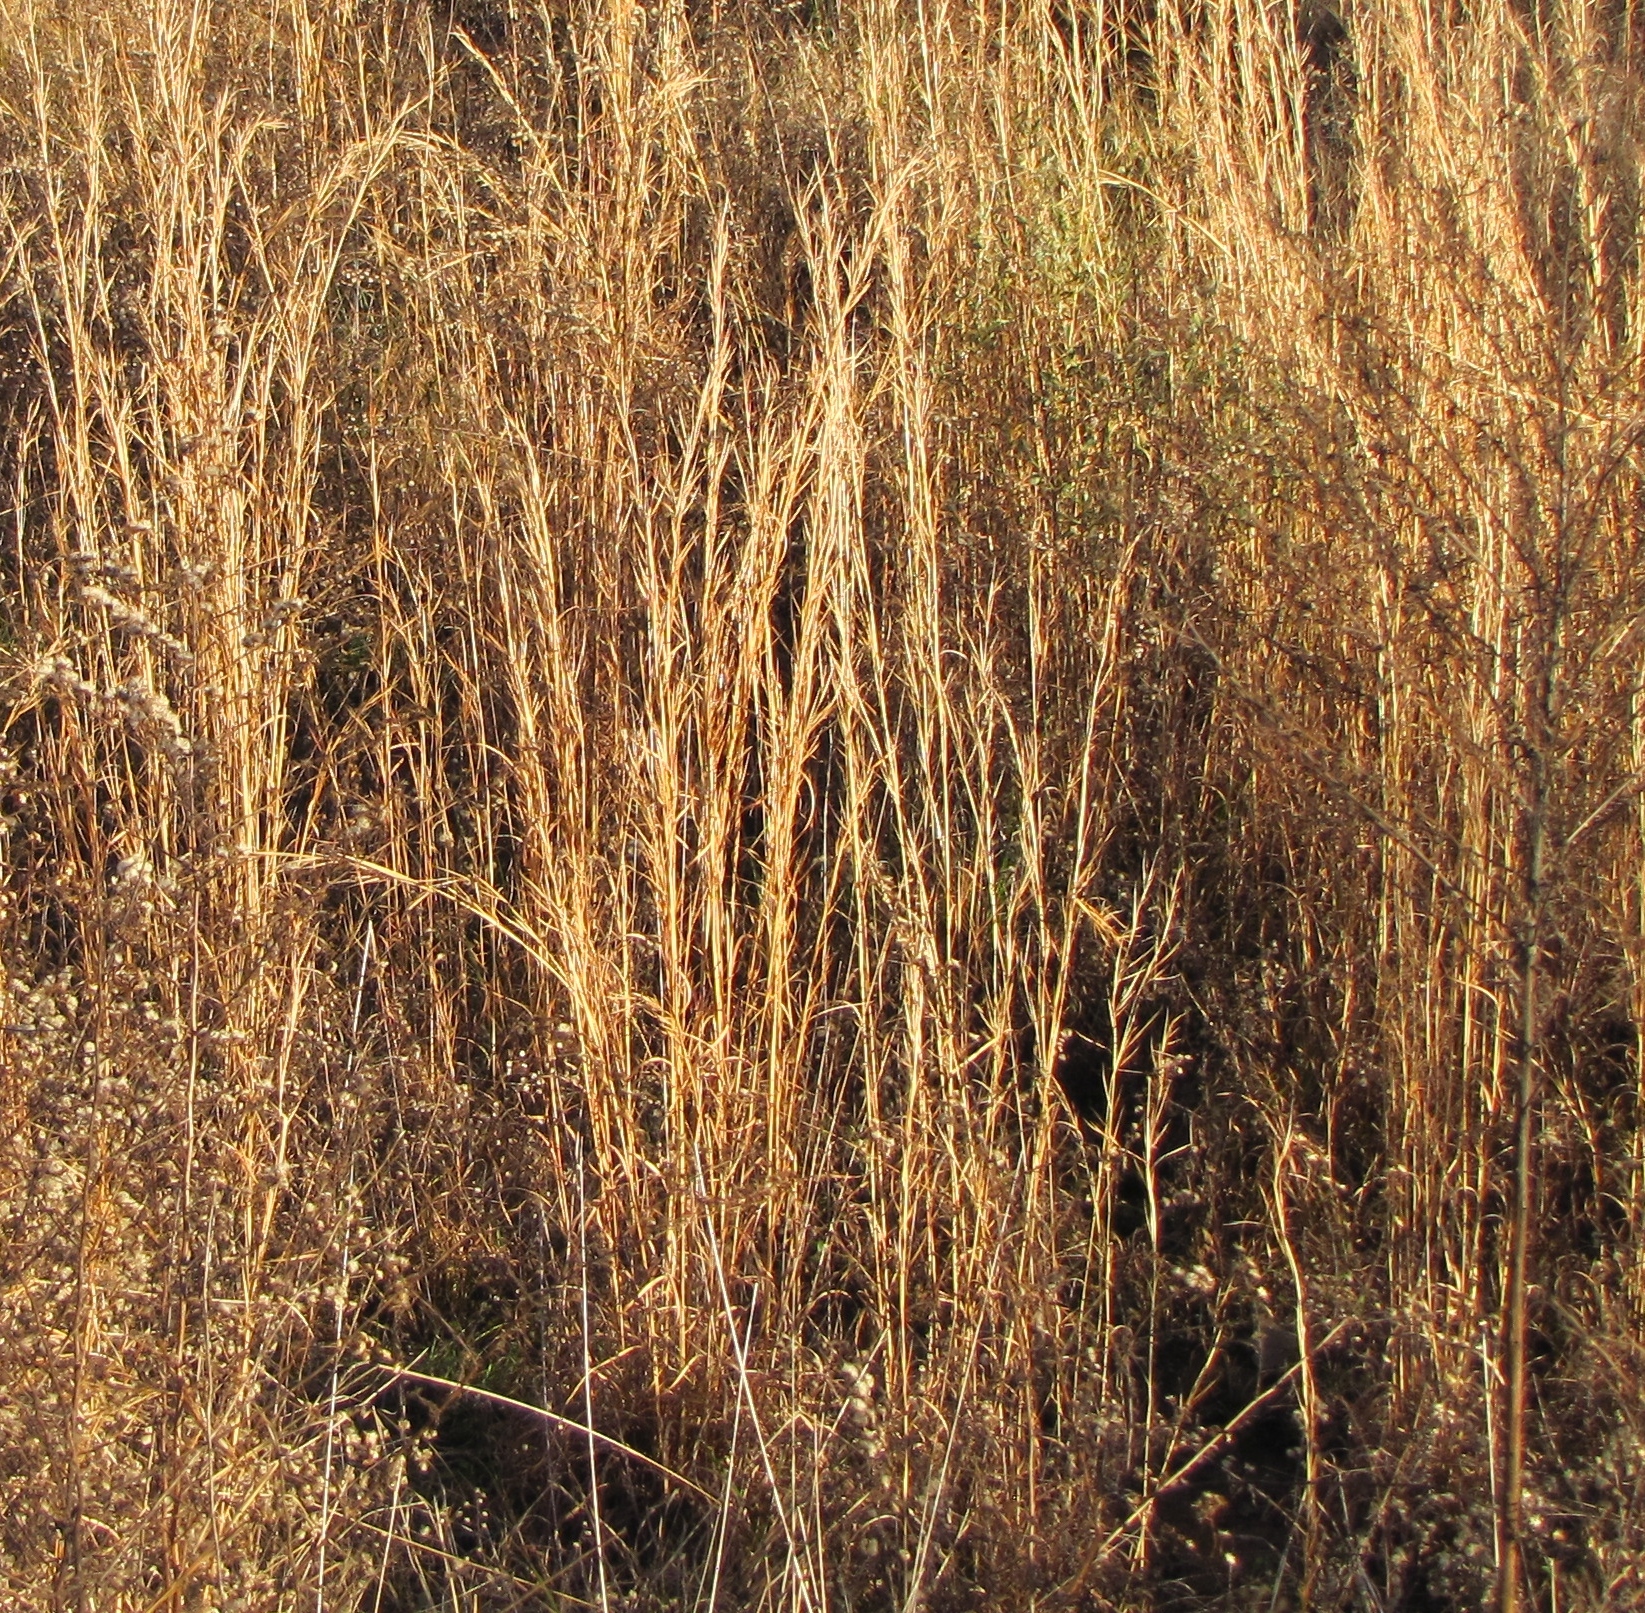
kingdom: Plantae
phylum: Tracheophyta
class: Liliopsida
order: Poales
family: Poaceae
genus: Andropogon
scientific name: Andropogon virginicus
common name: Broomsedge bluestem
